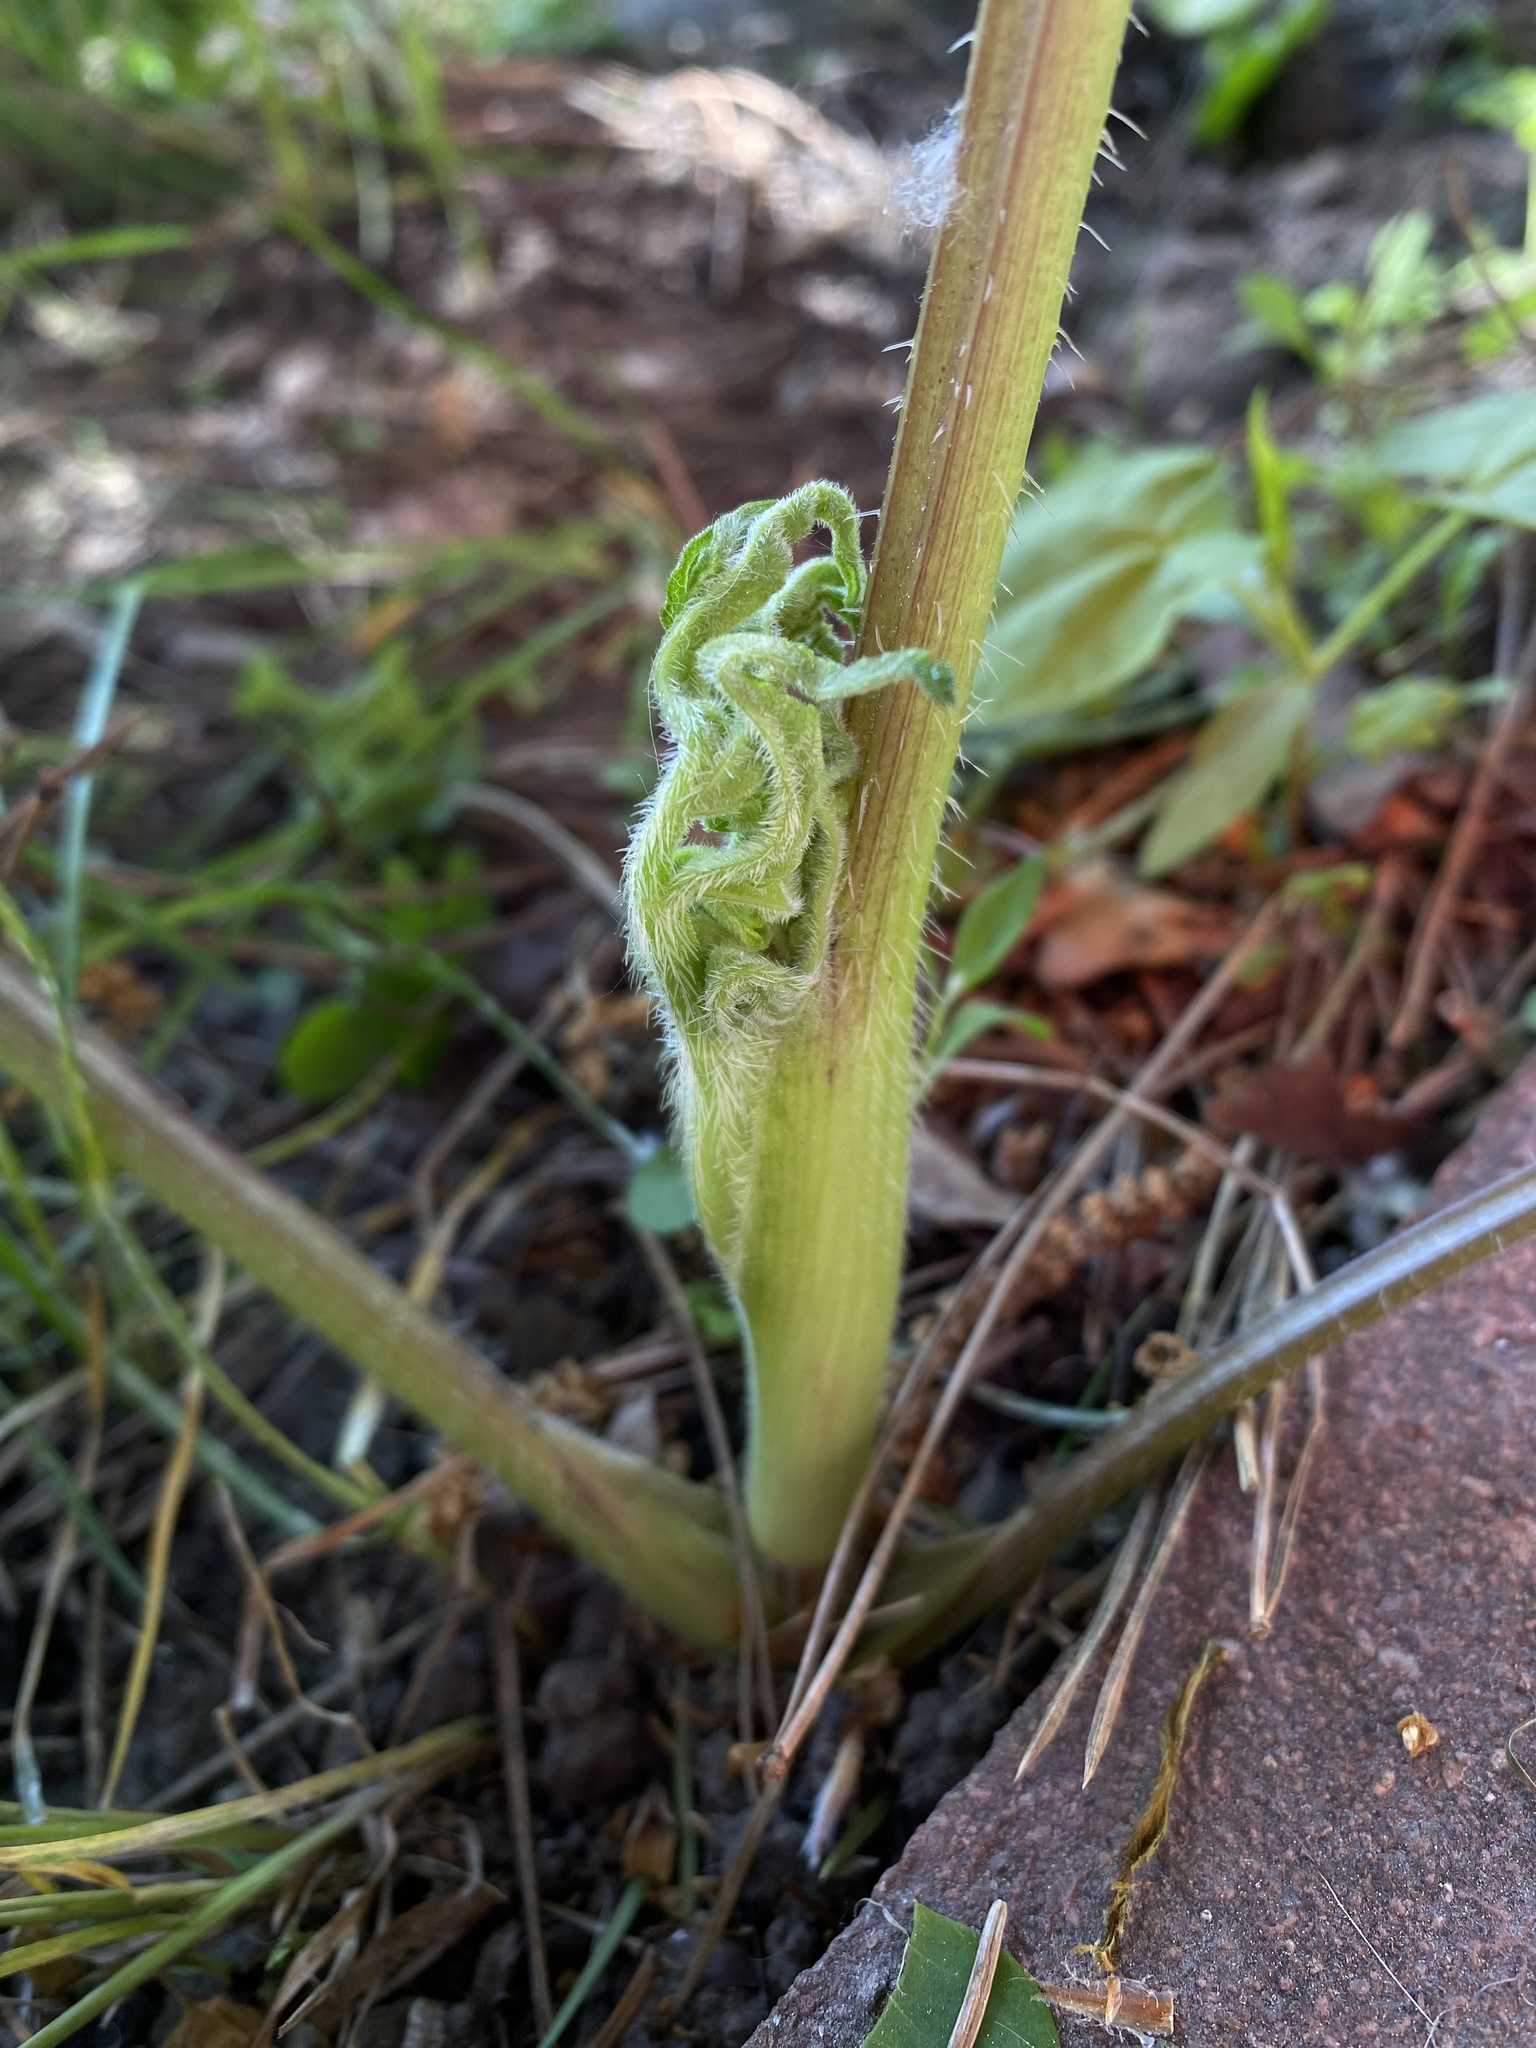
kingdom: Plantae
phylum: Tracheophyta
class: Magnoliopsida
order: Apiales
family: Apiaceae
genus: Heracleum
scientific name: Heracleum sphondylium
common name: Hogweed
